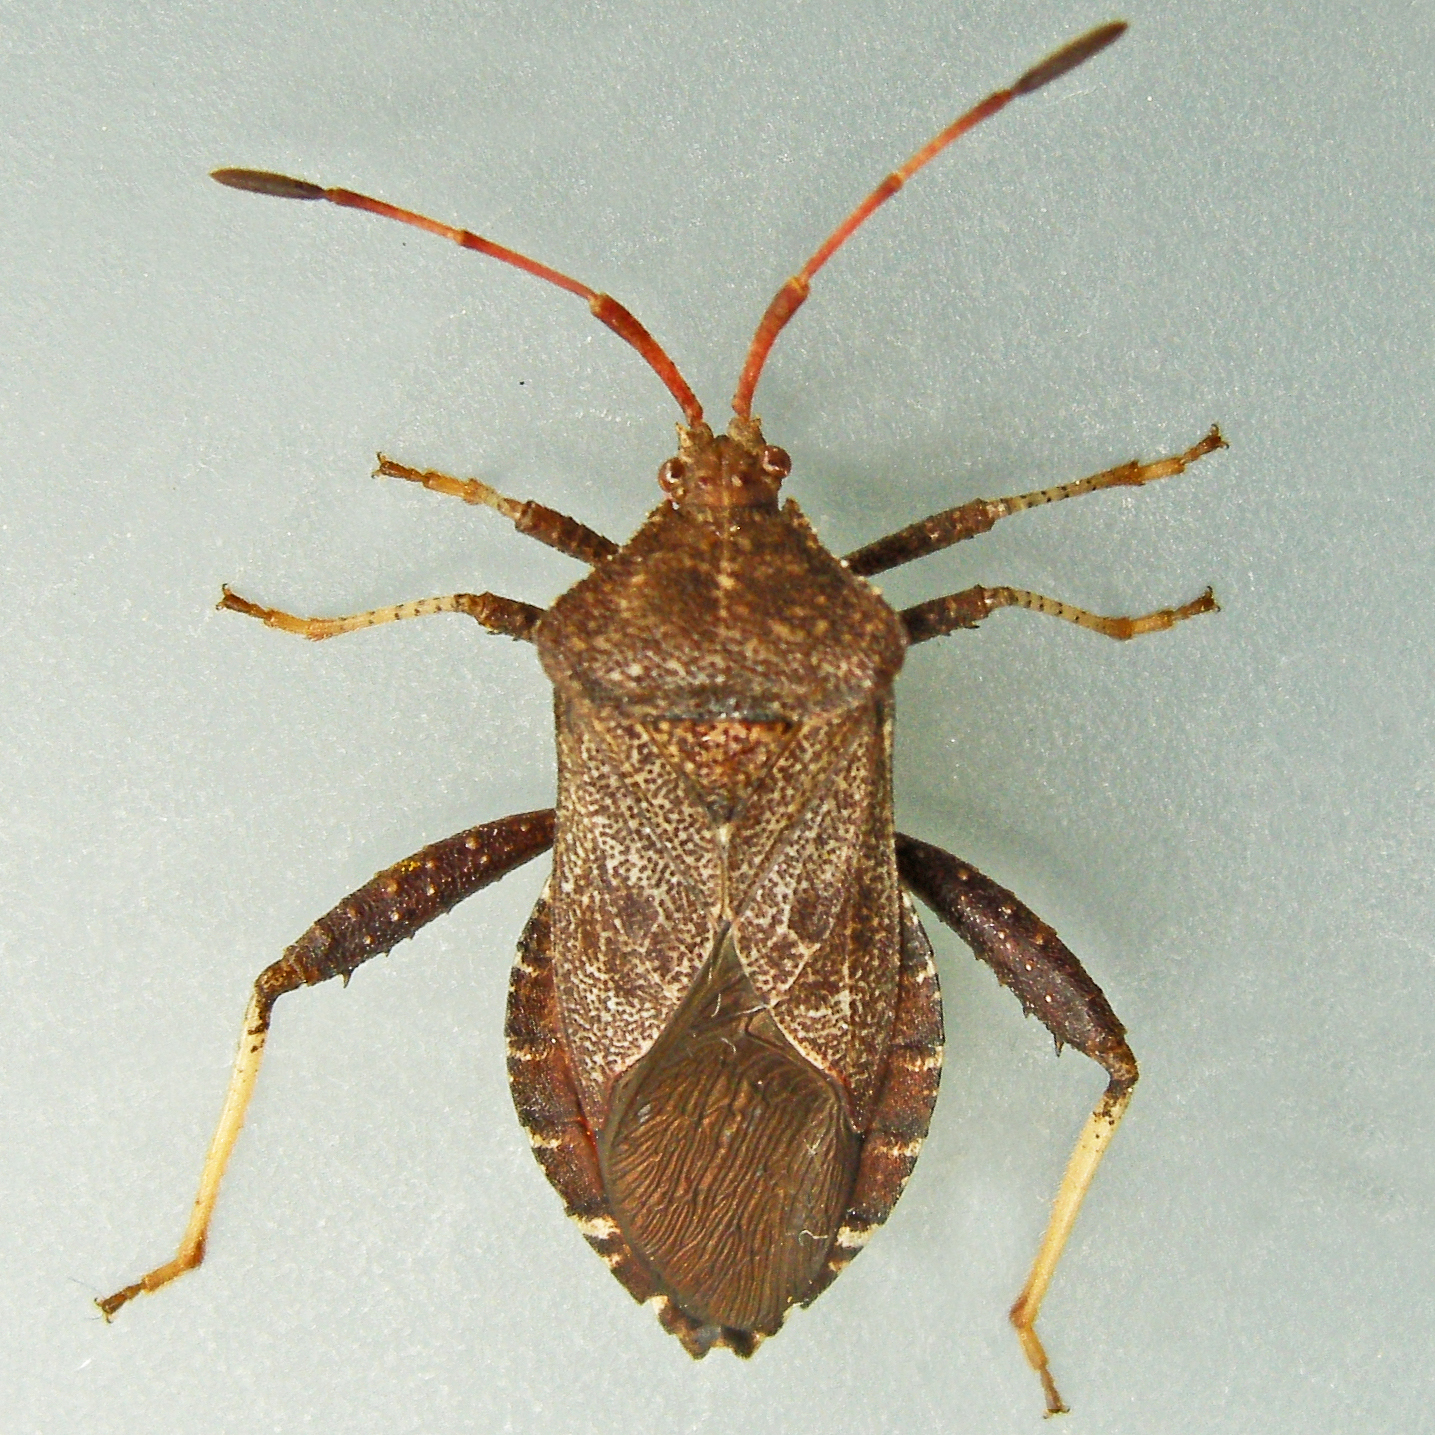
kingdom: Animalia
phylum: Arthropoda
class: Insecta
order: Hemiptera
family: Coreidae
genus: Euthochtha
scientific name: Euthochtha galeator
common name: Helmeted squash bug
